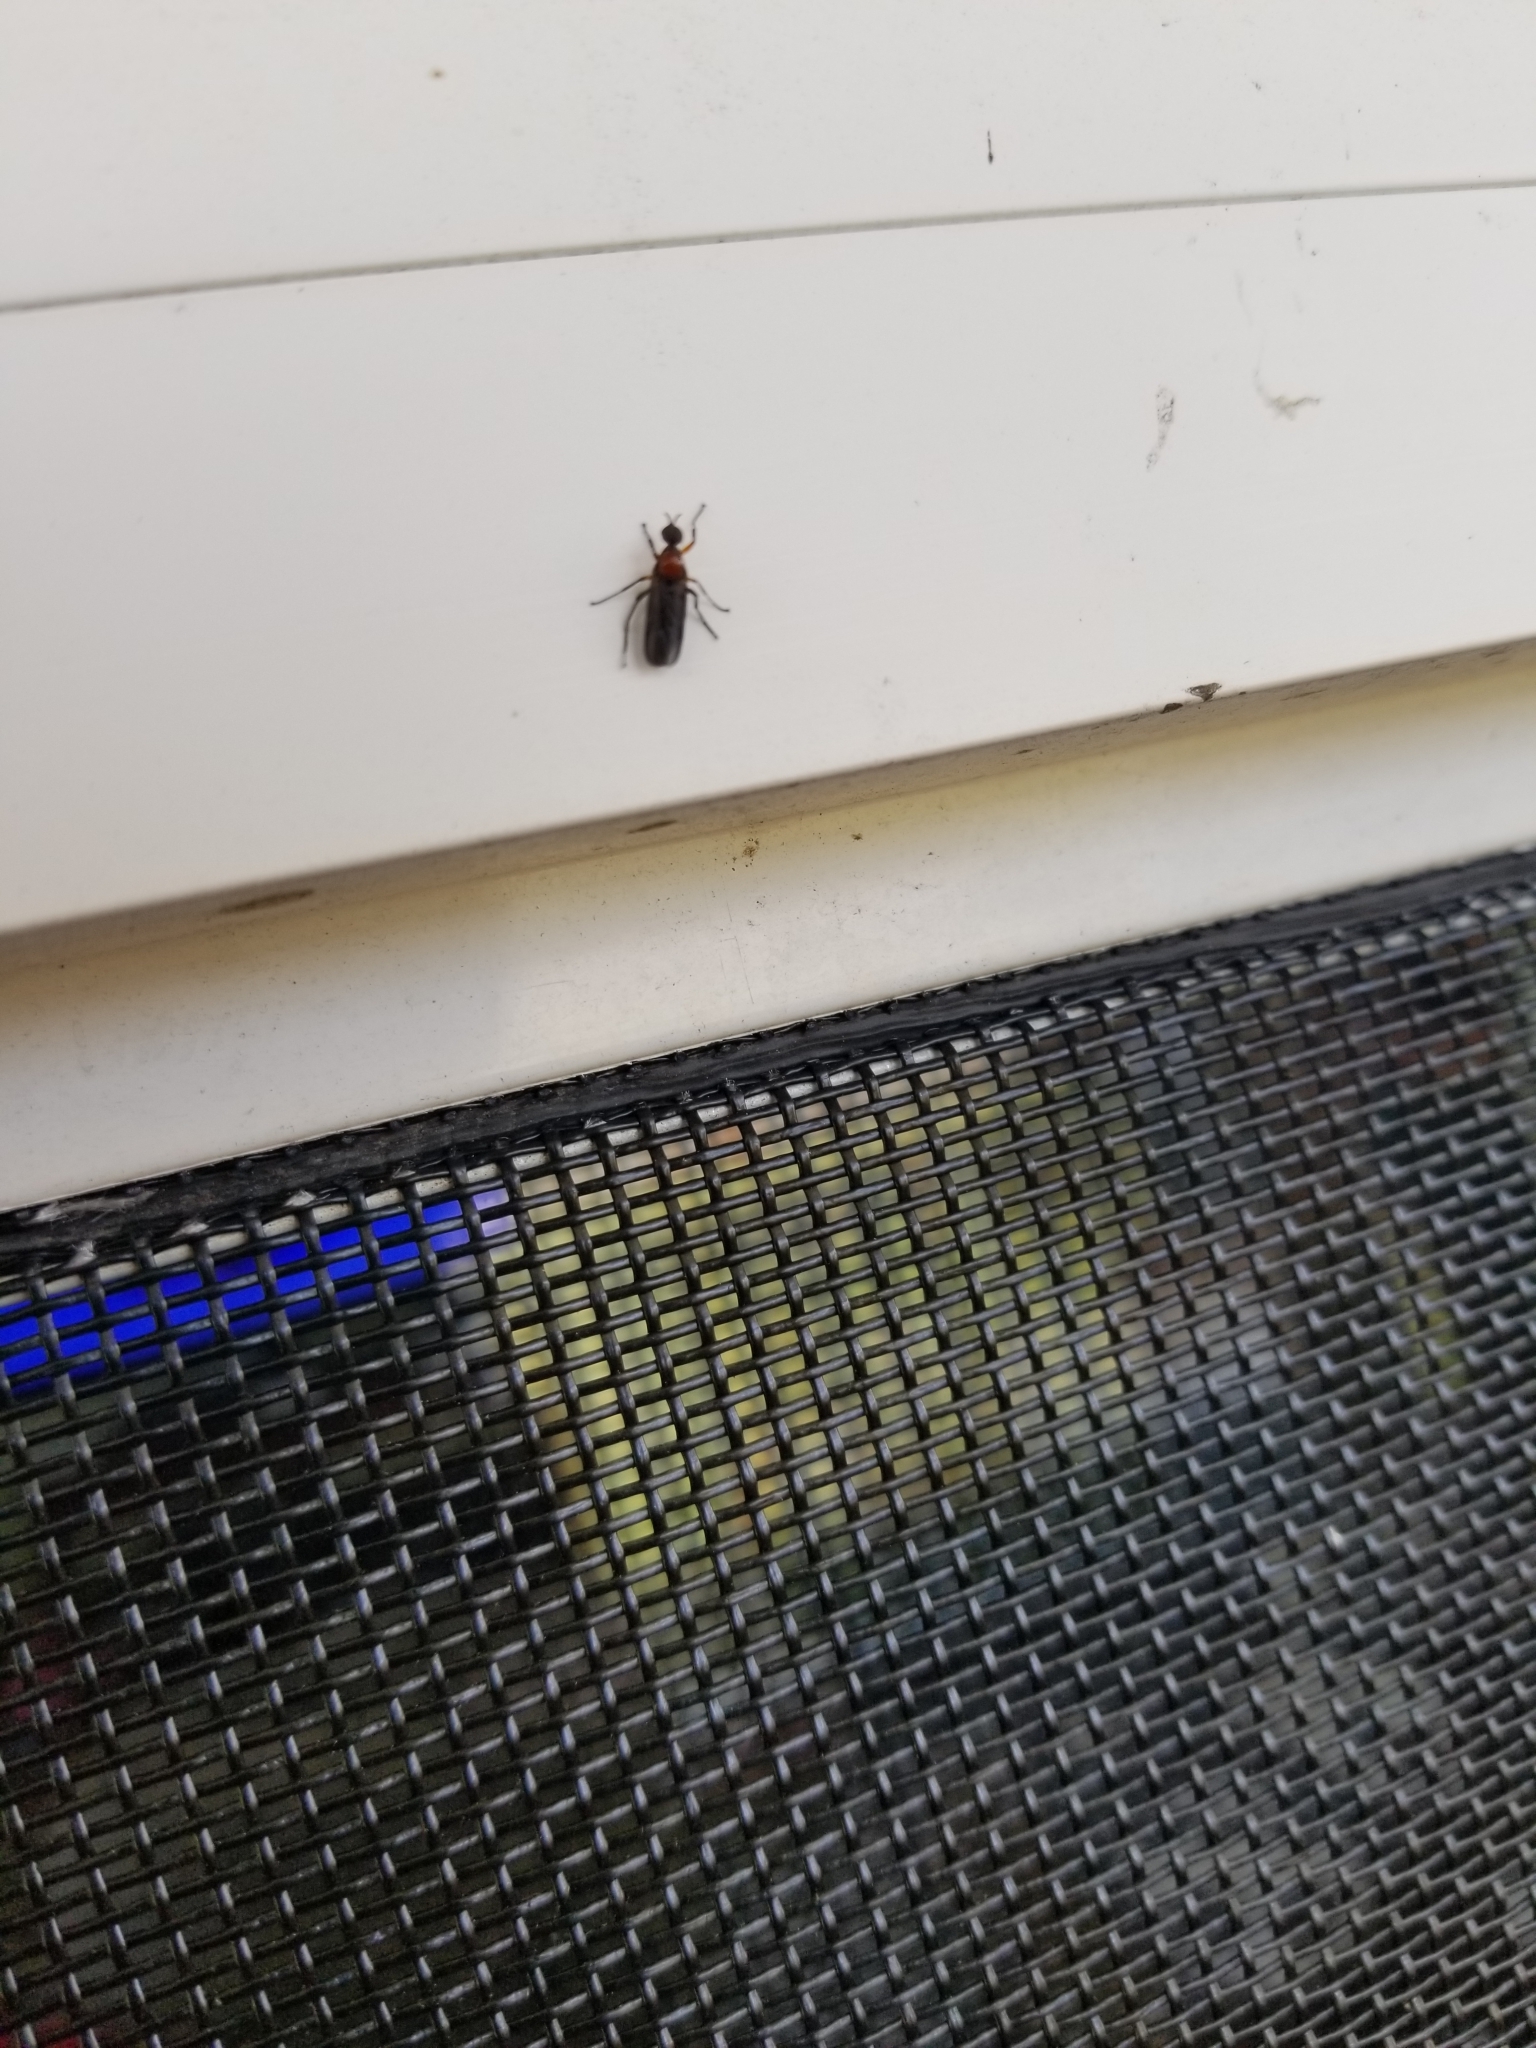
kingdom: Animalia
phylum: Arthropoda
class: Insecta
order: Diptera
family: Bibionidae
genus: Dilophus
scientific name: Dilophus spinipes
